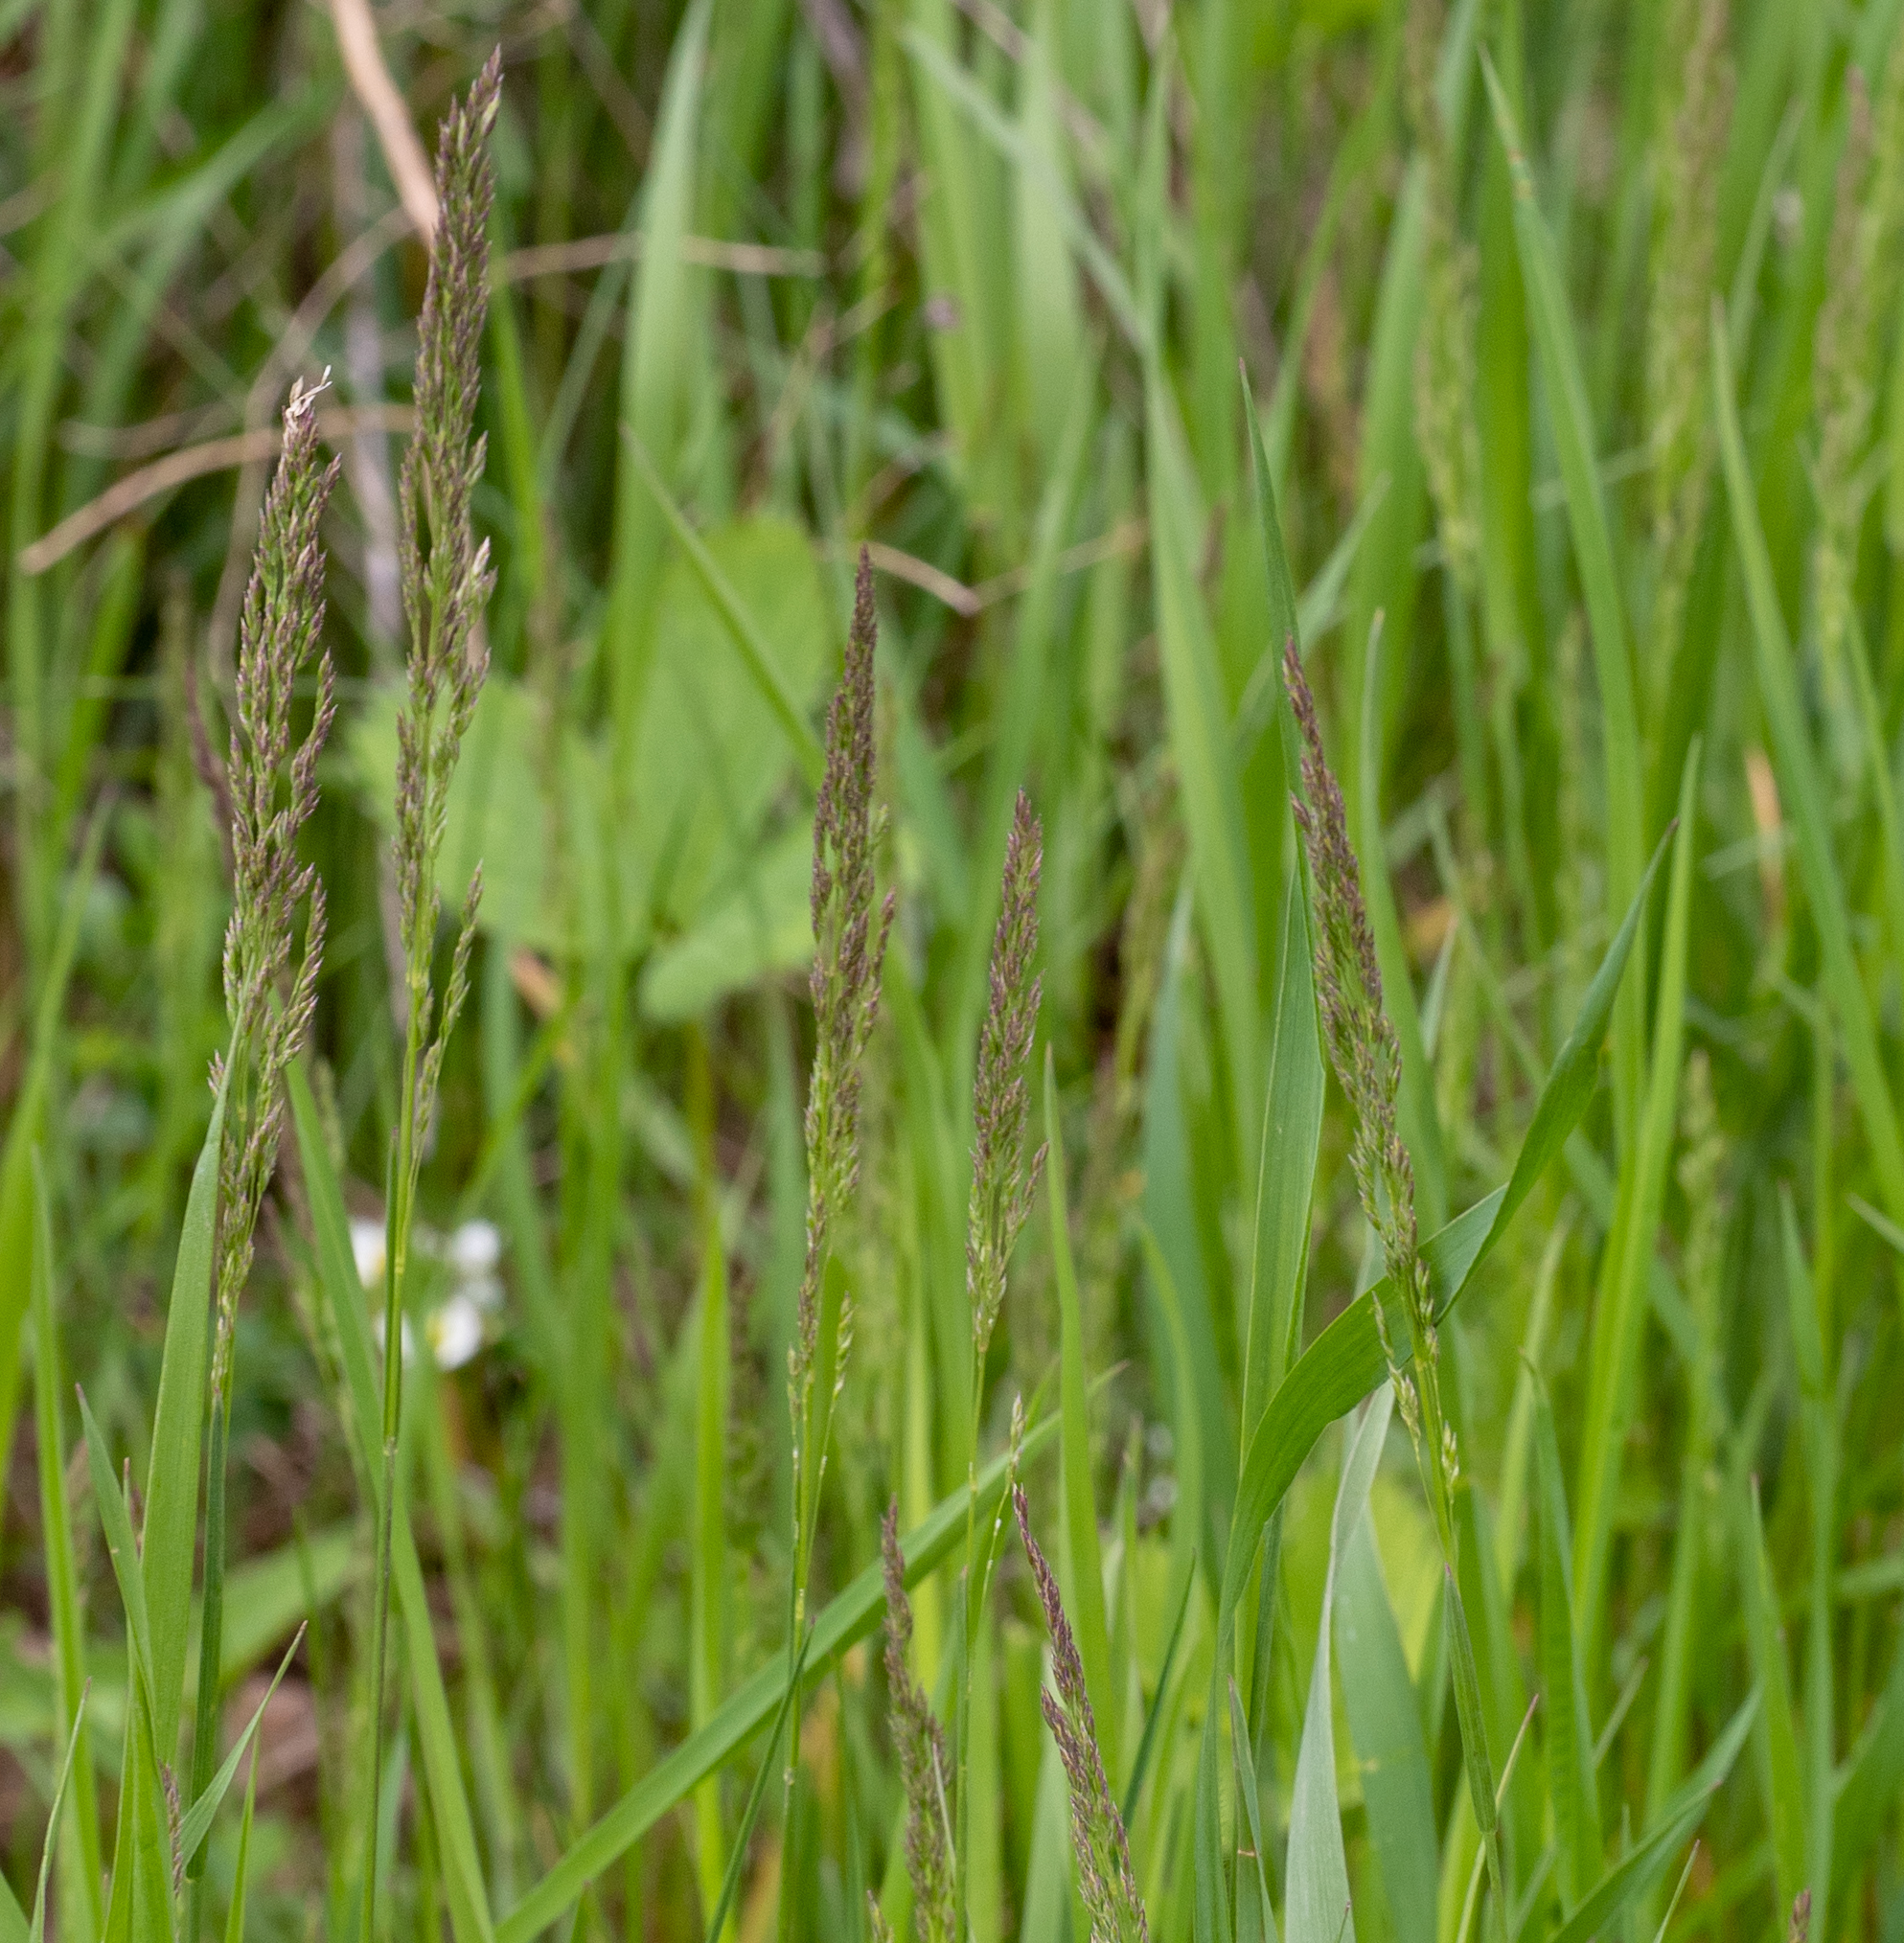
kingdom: Plantae
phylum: Tracheophyta
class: Liliopsida
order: Poales
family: Poaceae
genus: Poa
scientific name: Poa pratensis
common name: Kentucky bluegrass
